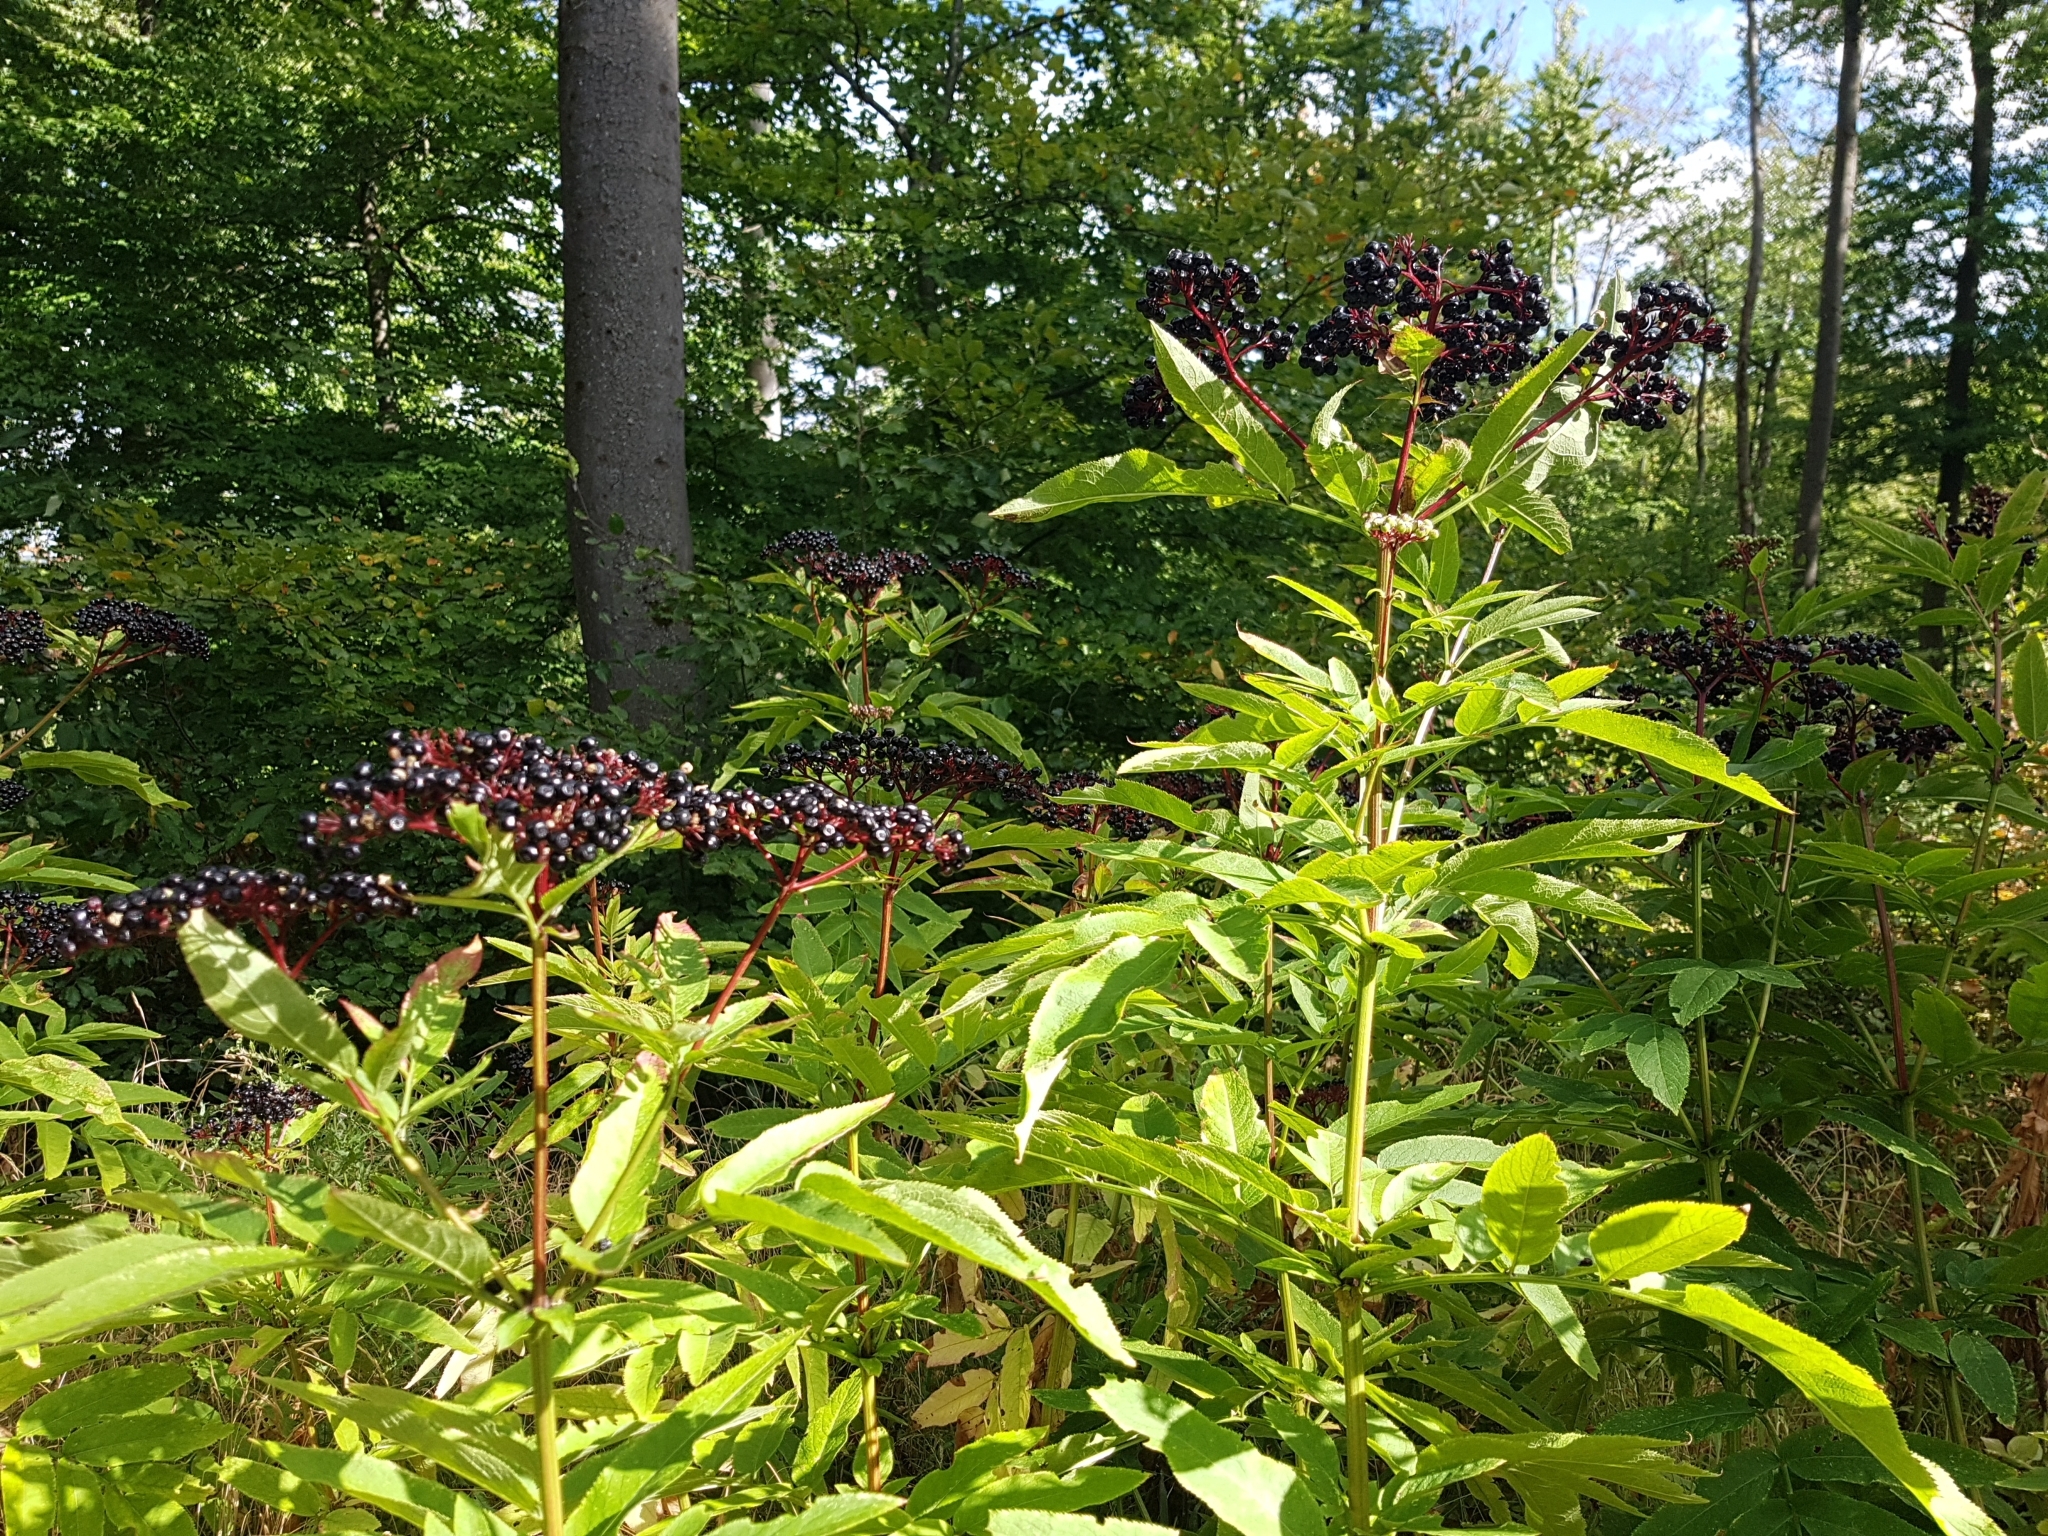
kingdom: Plantae
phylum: Tracheophyta
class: Magnoliopsida
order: Dipsacales
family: Viburnaceae
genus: Sambucus
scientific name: Sambucus ebulus
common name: Dwarf elder
